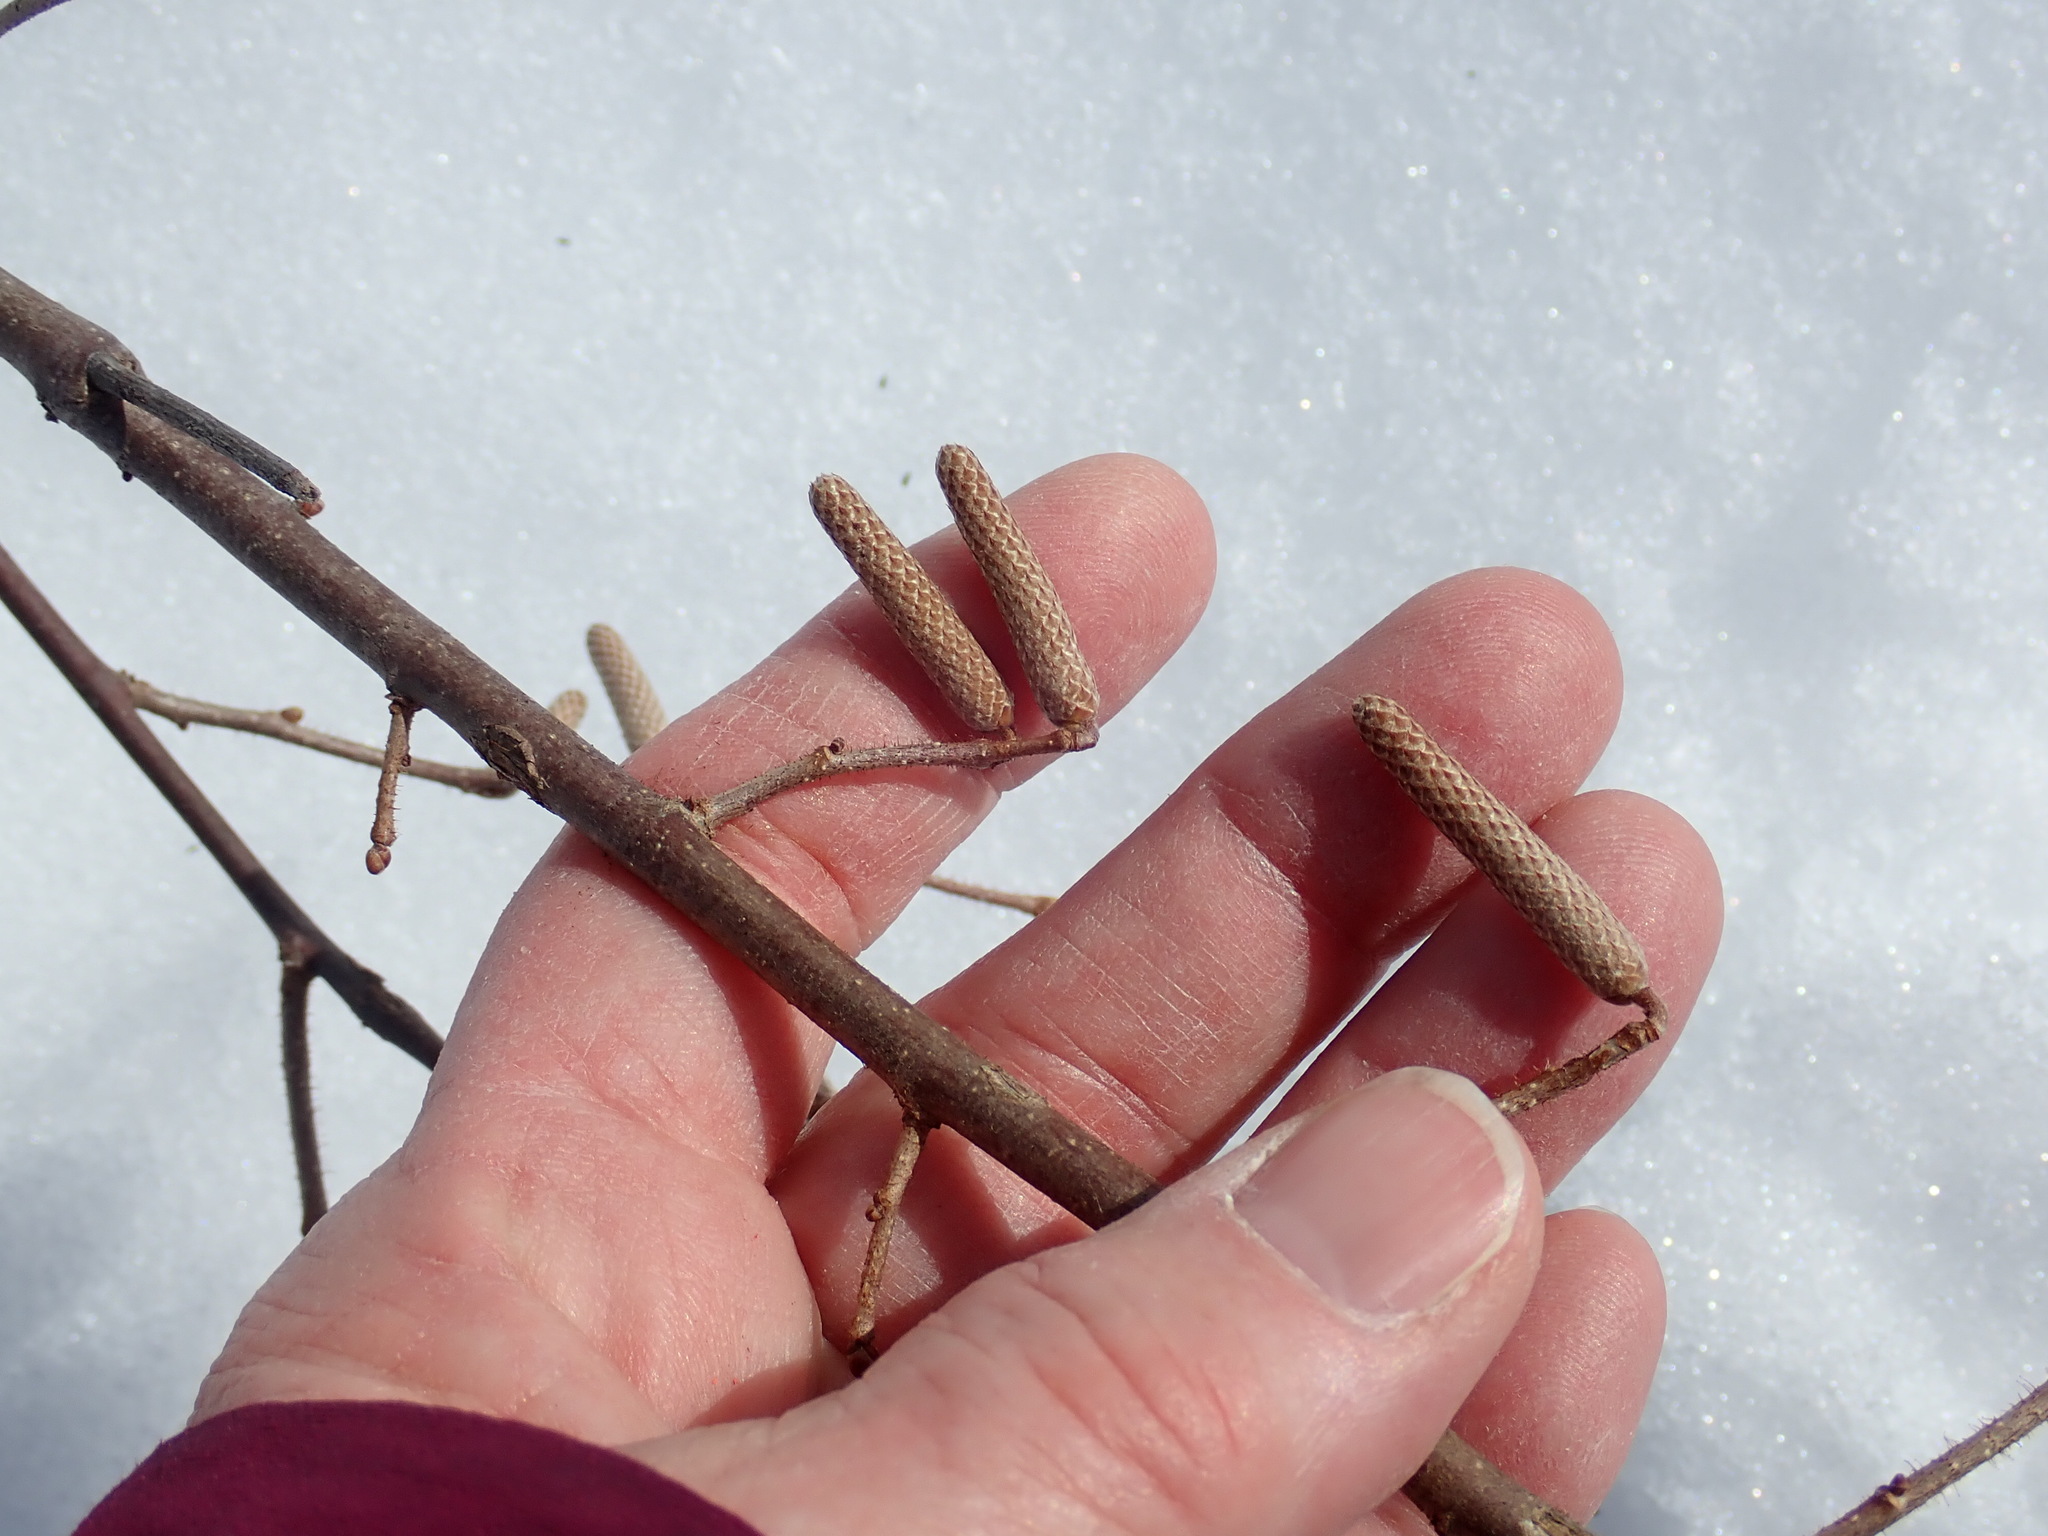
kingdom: Plantae
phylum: Tracheophyta
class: Magnoliopsida
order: Fagales
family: Betulaceae
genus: Corylus
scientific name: Corylus americana
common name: American hazel
